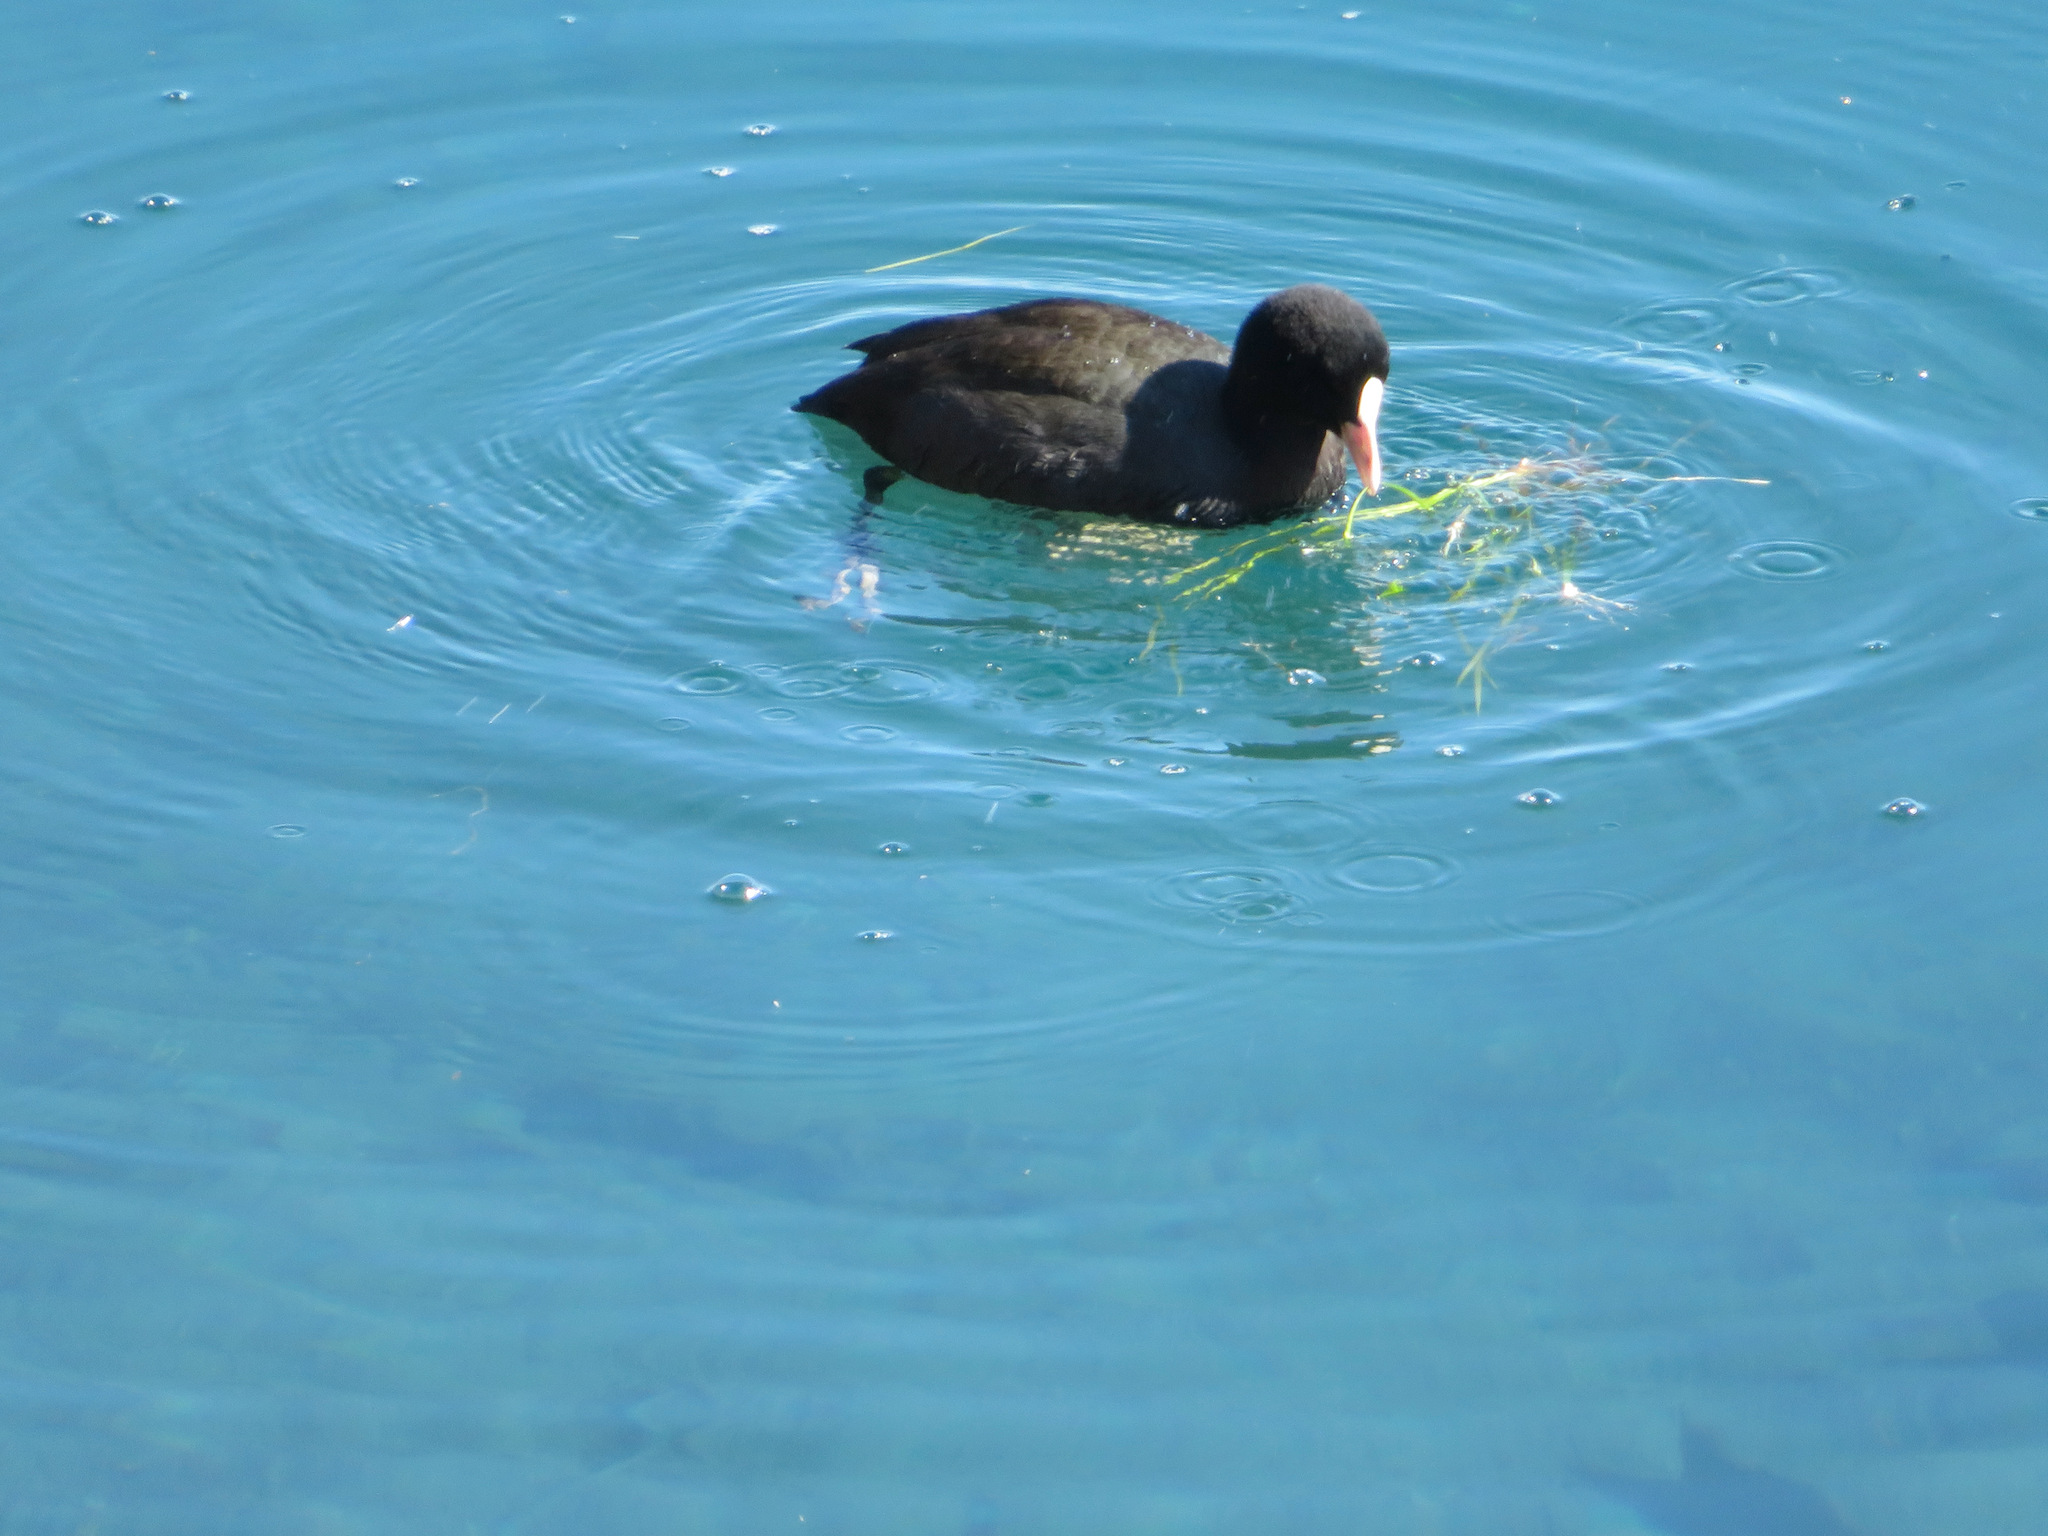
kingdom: Animalia
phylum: Chordata
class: Aves
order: Gruiformes
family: Rallidae
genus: Fulica
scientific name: Fulica atra
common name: Eurasian coot
